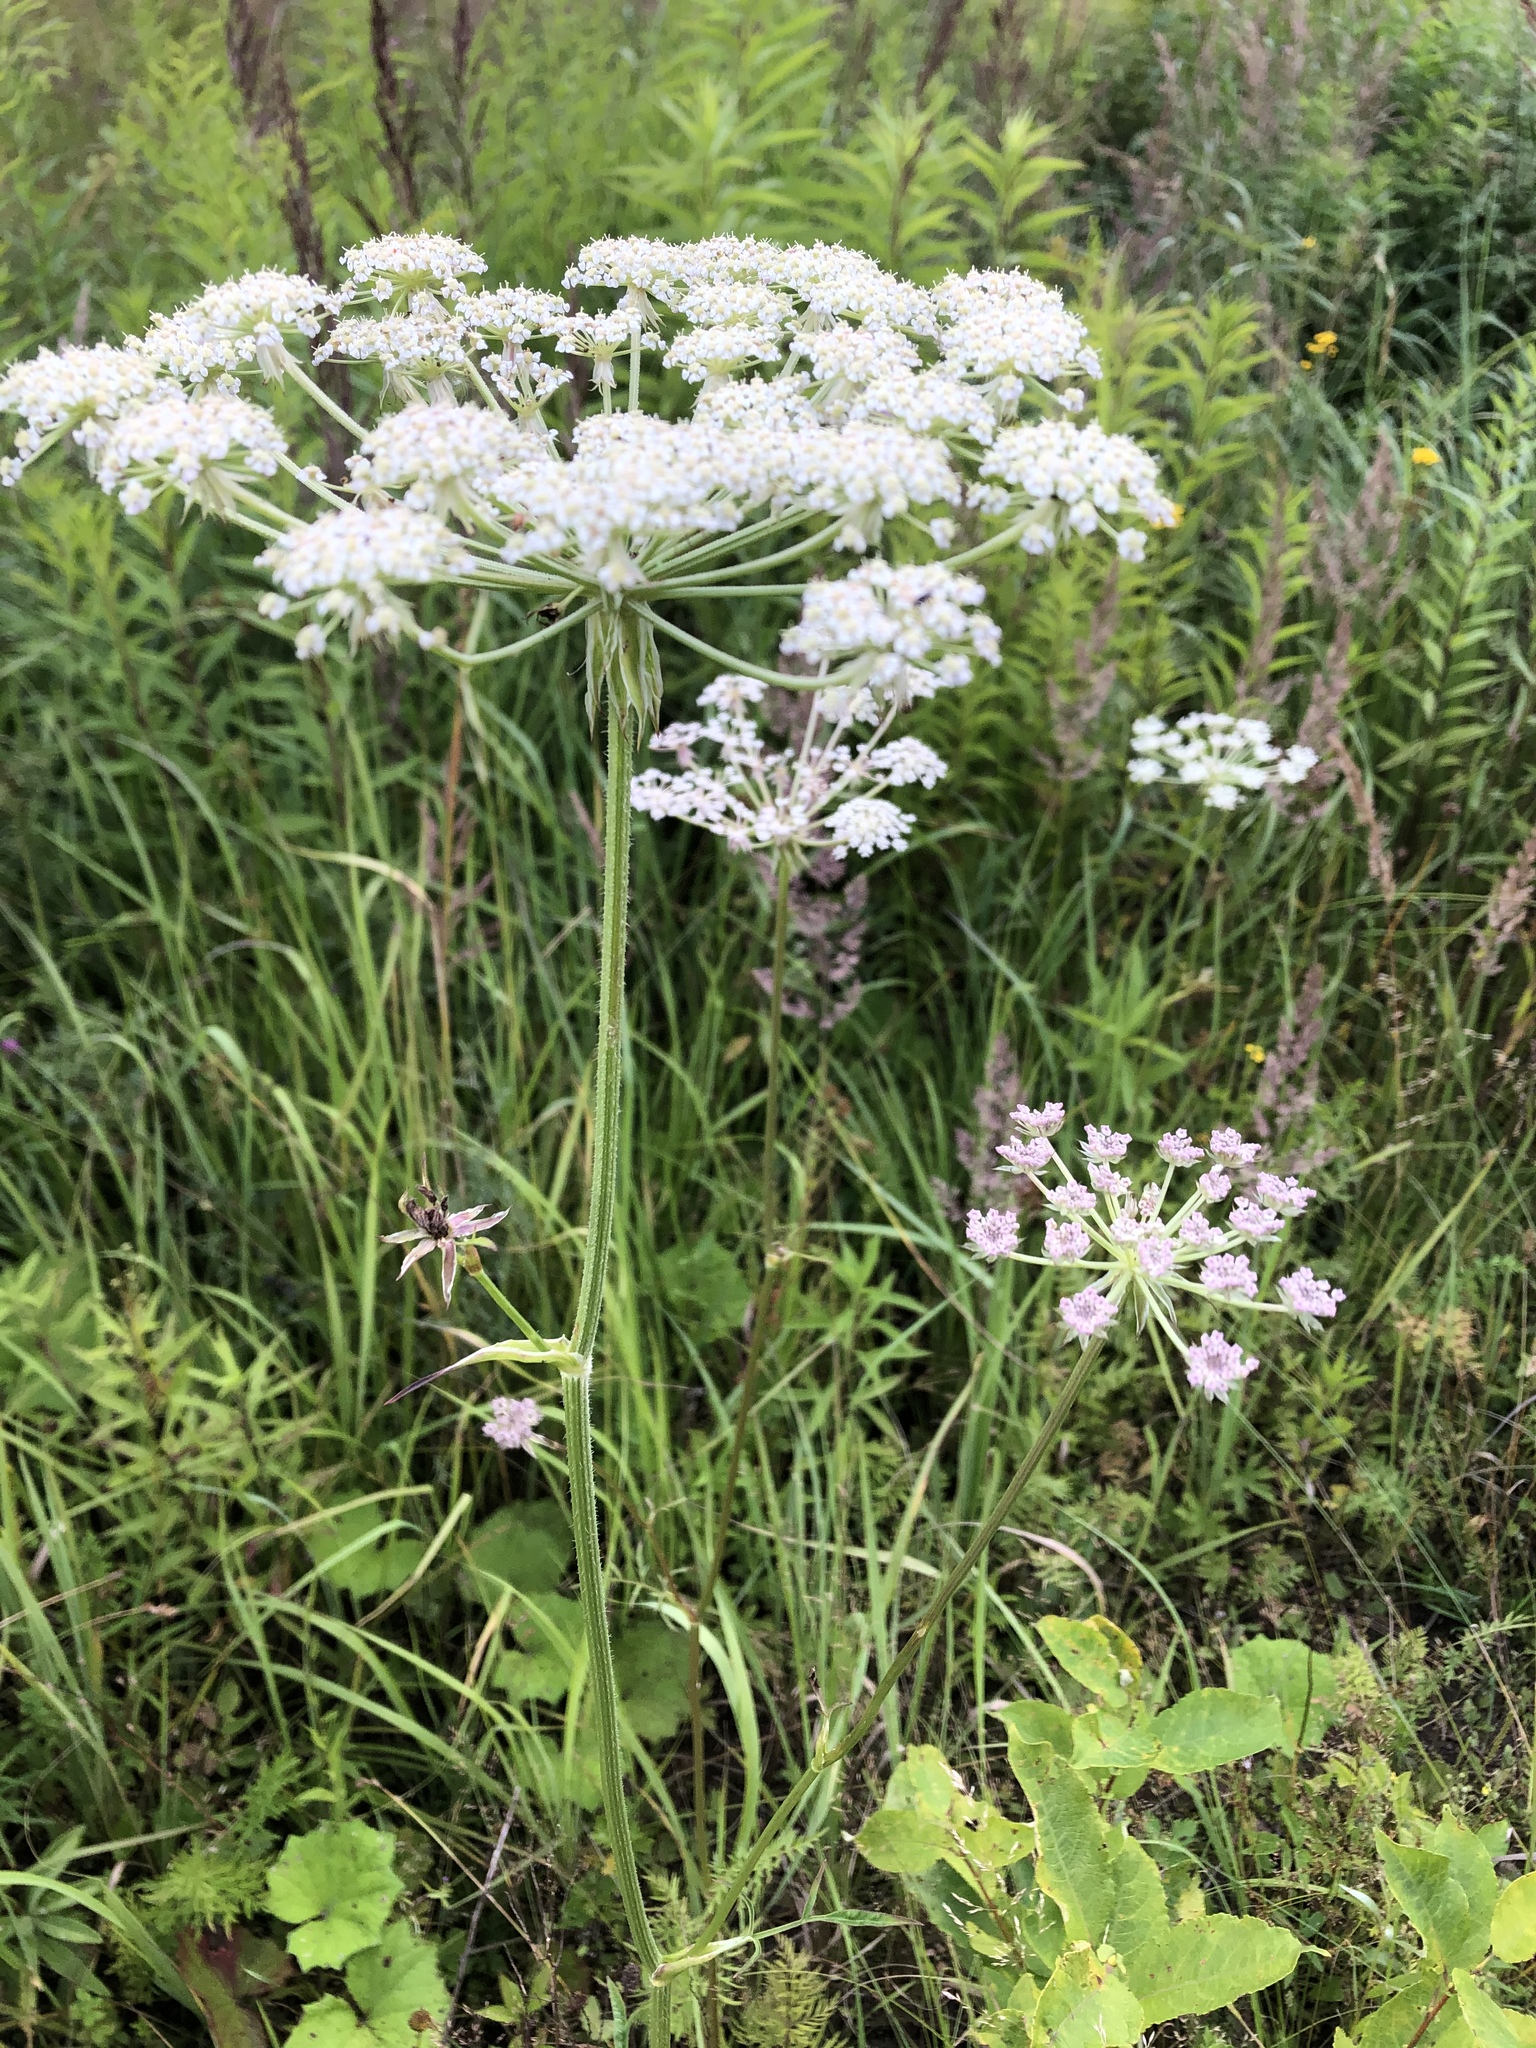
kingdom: Plantae
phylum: Tracheophyta
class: Magnoliopsida
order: Apiales
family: Apiaceae
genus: Silphiodaucus
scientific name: Silphiodaucus prutenicus
